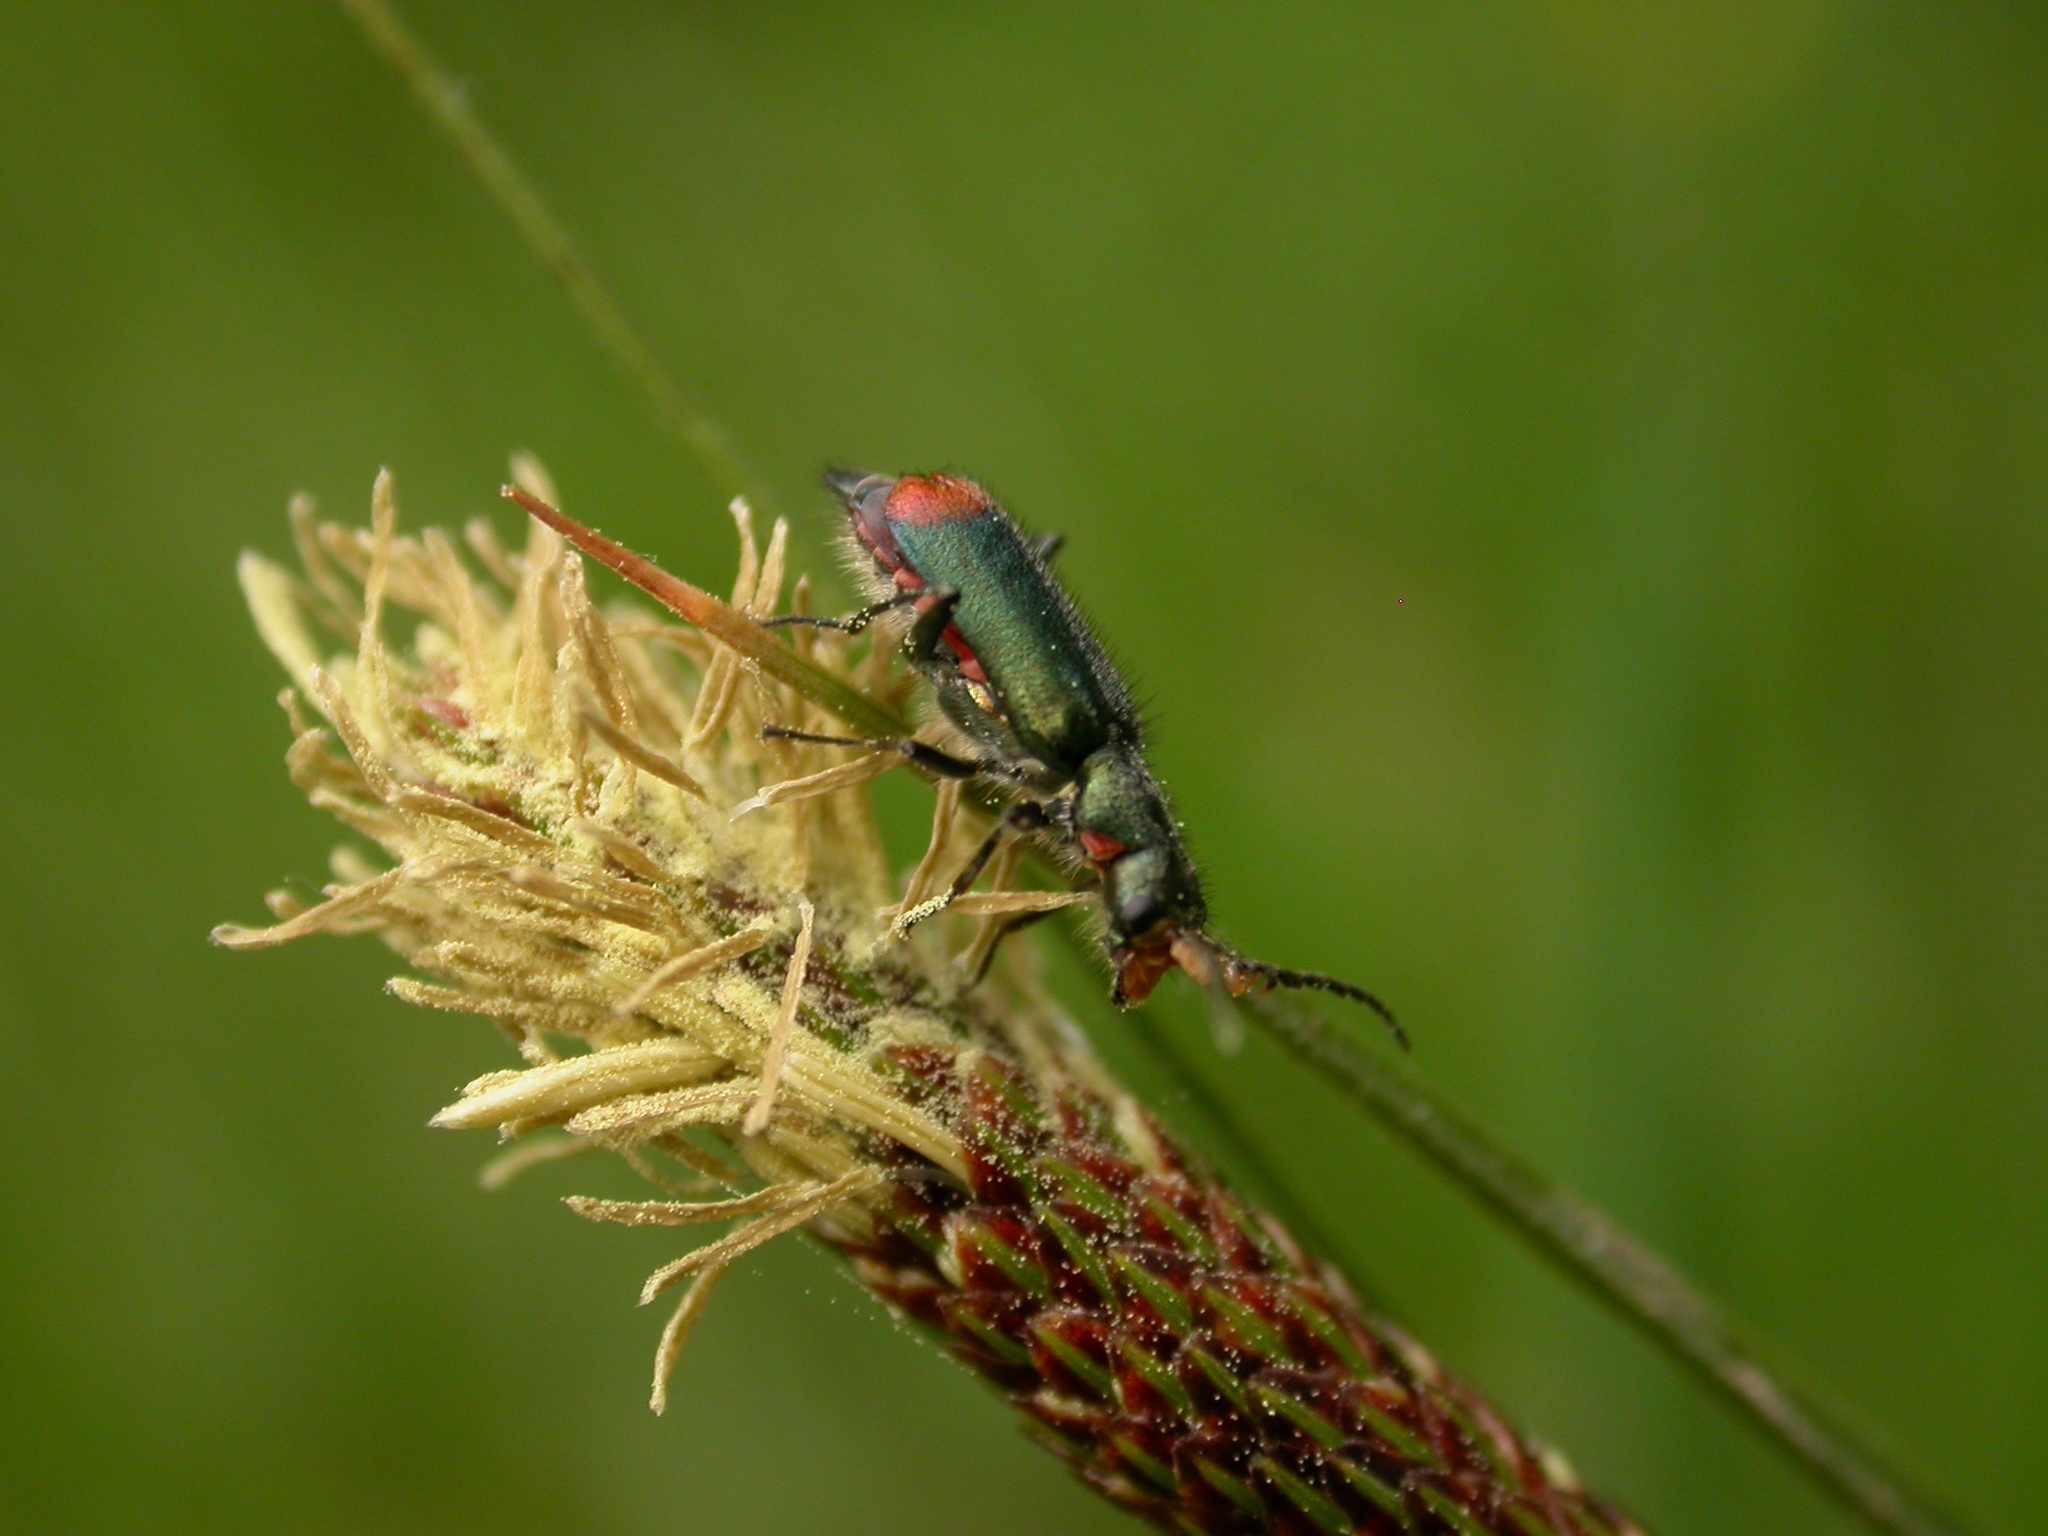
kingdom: Animalia
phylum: Arthropoda
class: Insecta
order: Coleoptera
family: Melyridae
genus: Malachius
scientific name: Malachius bipustulatus
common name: Malachite beetle
